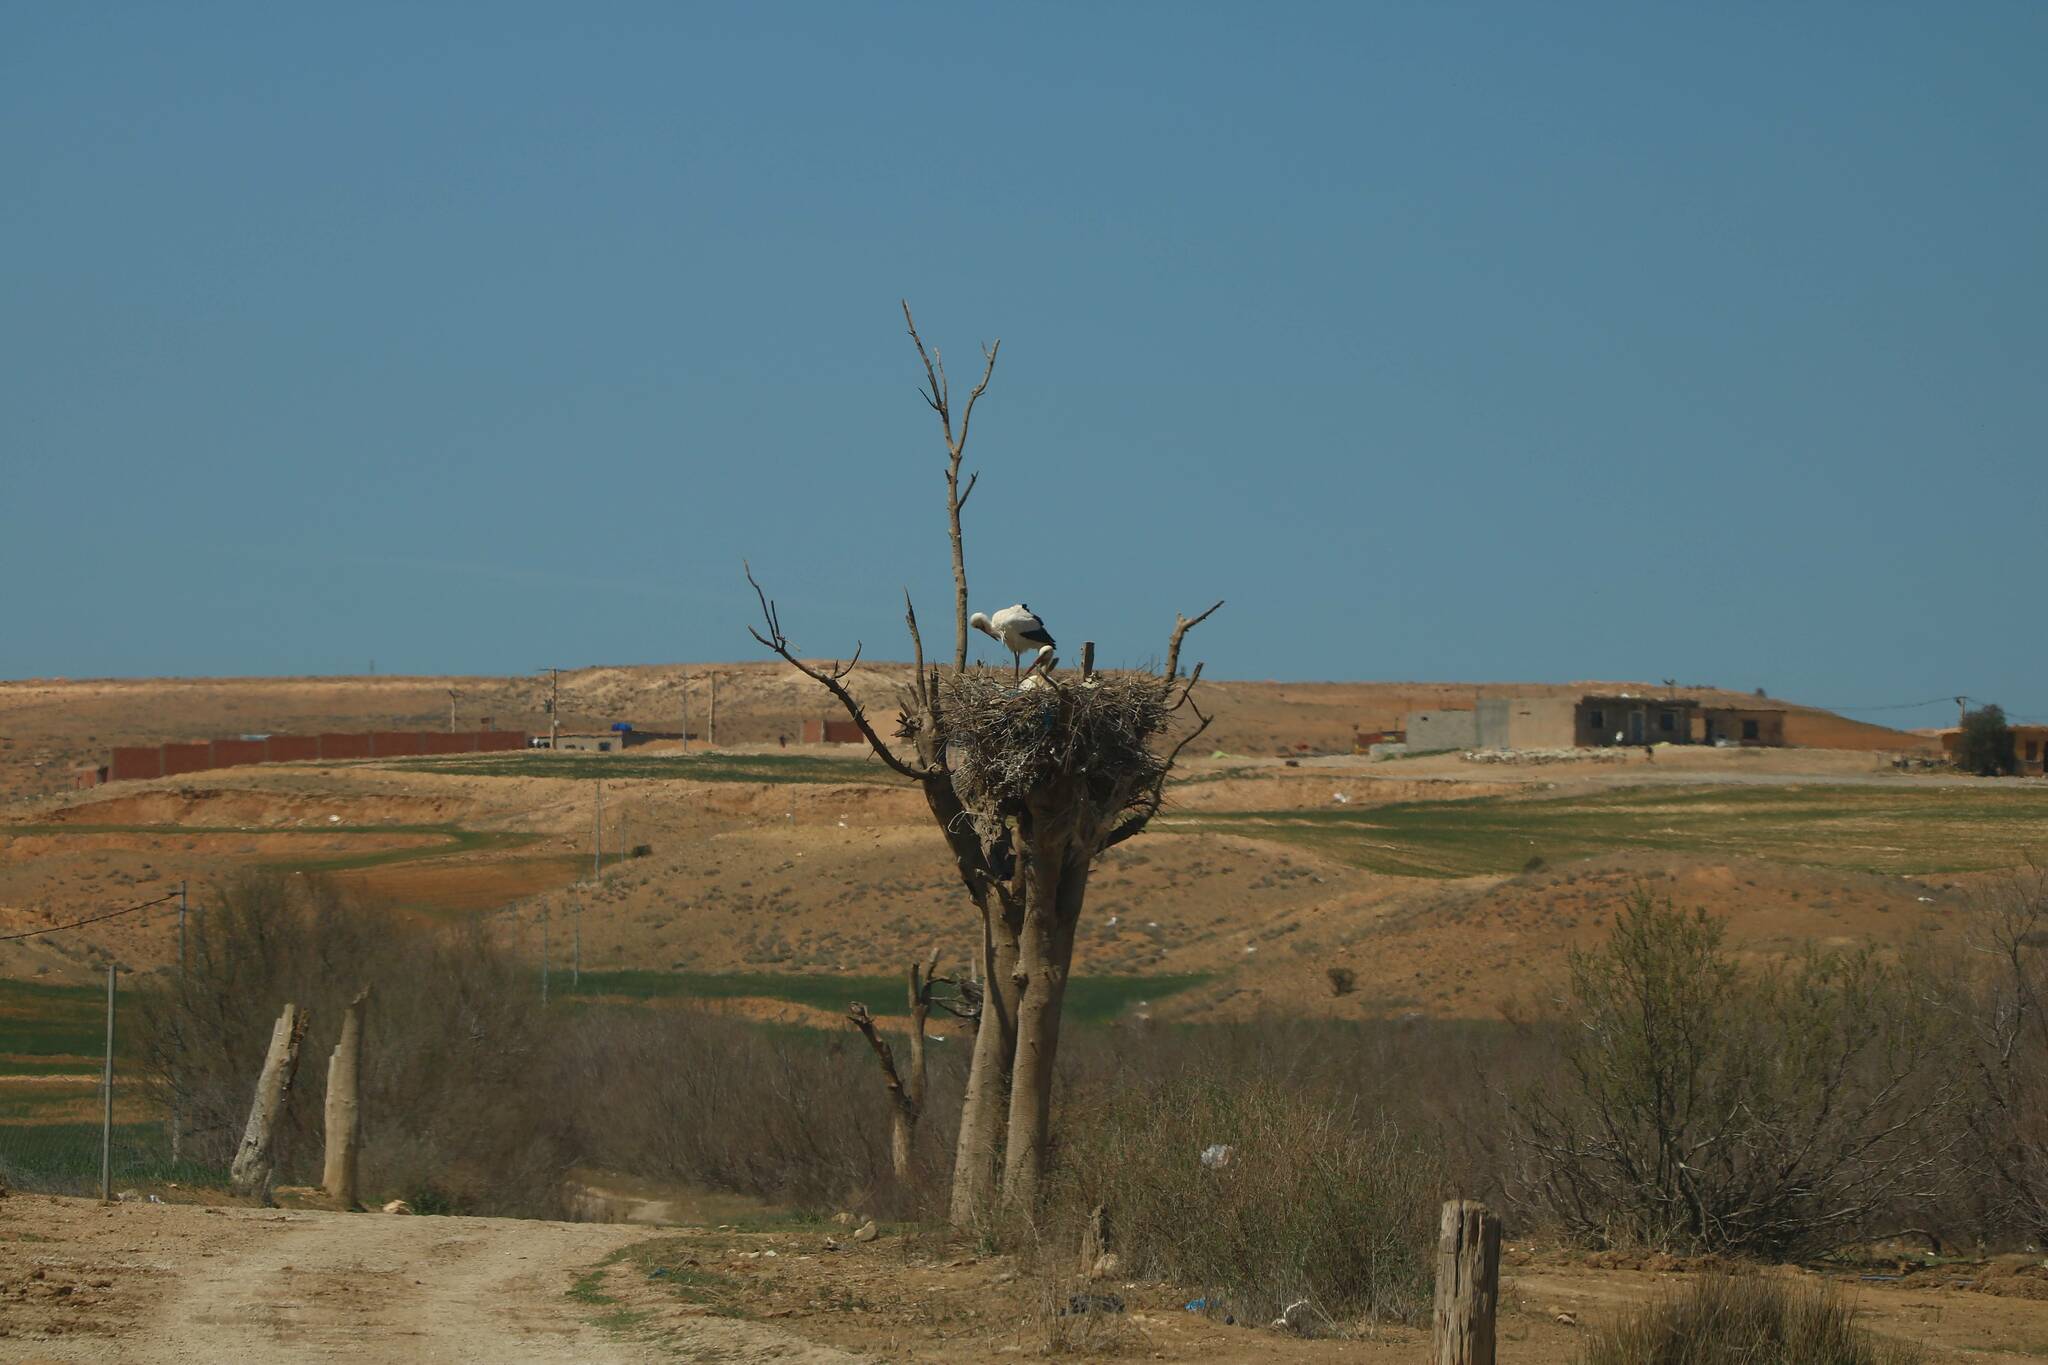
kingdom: Animalia
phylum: Chordata
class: Aves
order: Ciconiiformes
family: Ciconiidae
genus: Ciconia
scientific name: Ciconia ciconia
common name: White stork
